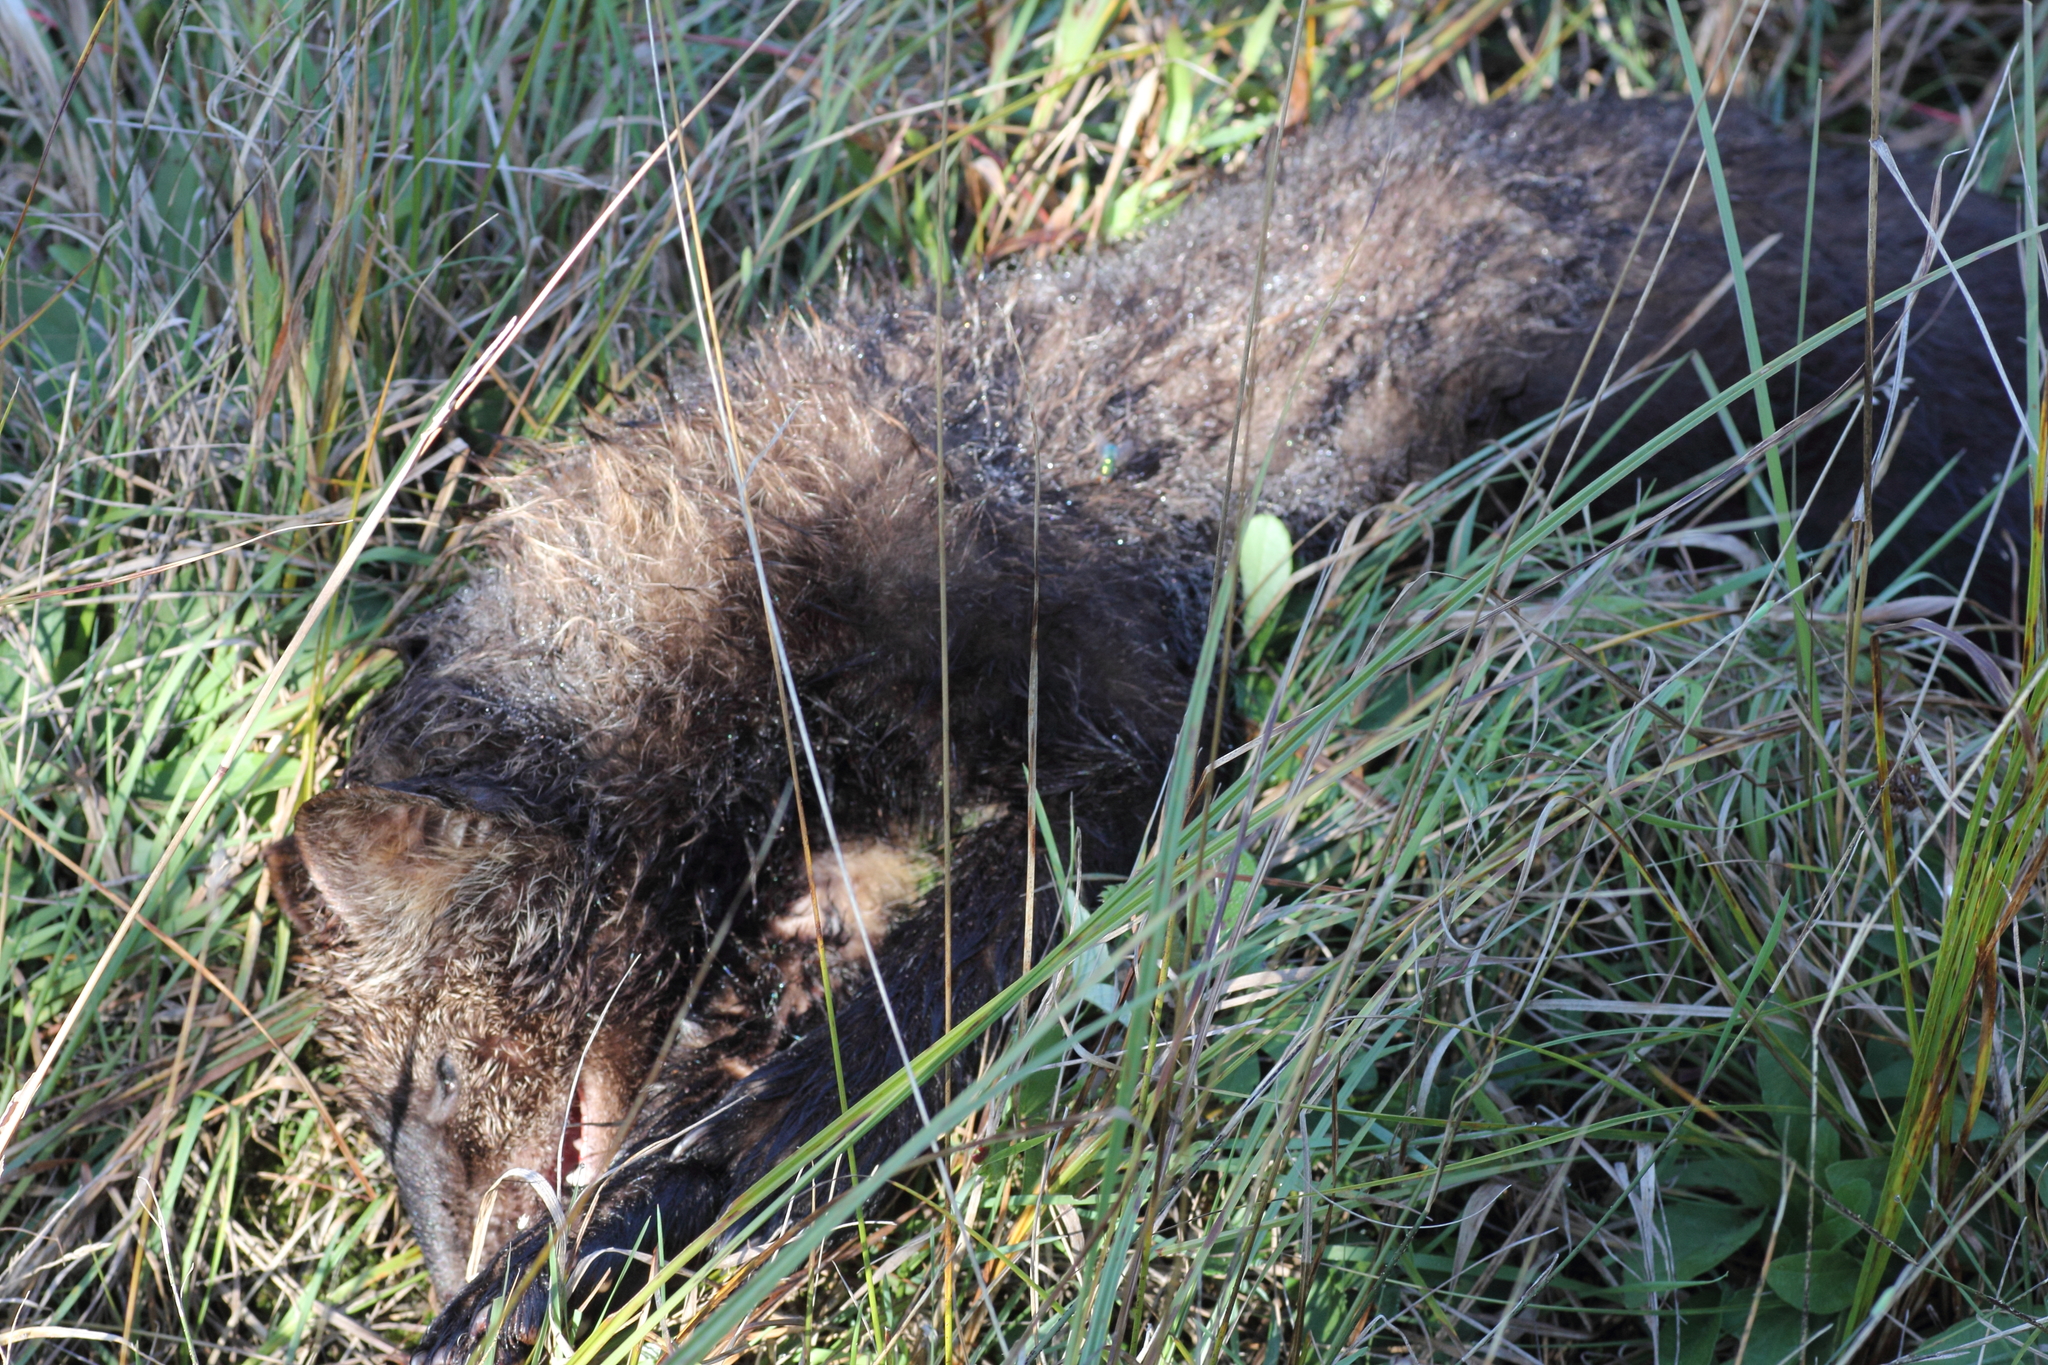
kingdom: Animalia
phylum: Chordata
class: Mammalia
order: Carnivora
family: Mustelidae
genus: Pekania
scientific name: Pekania pennanti
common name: Fisher
